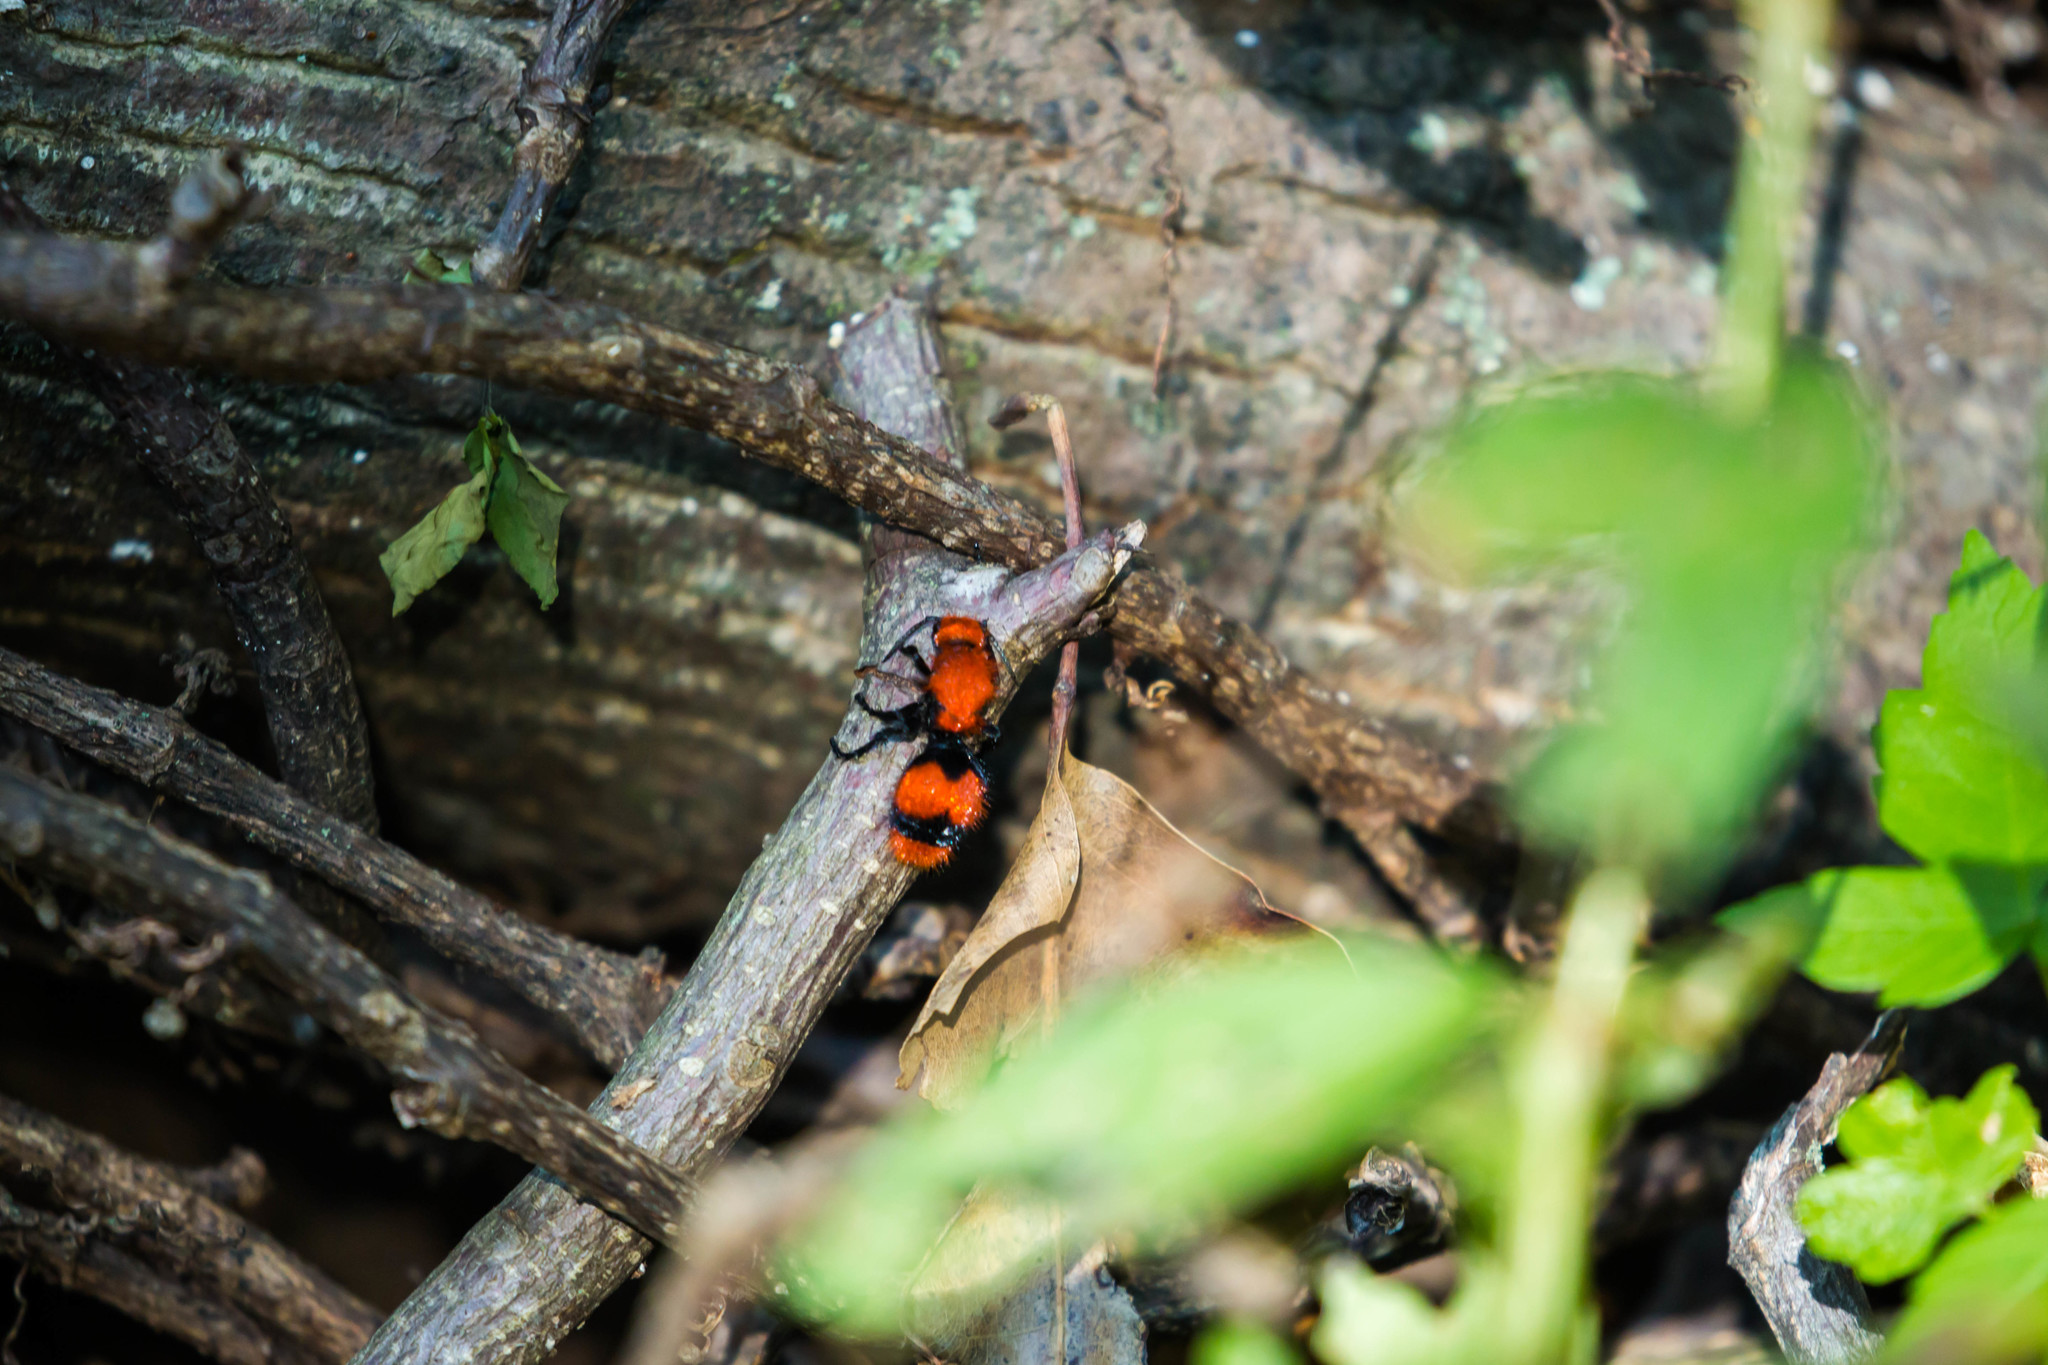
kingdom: Animalia
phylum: Arthropoda
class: Insecta
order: Hymenoptera
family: Mutillidae
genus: Dasymutilla
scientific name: Dasymutilla occidentalis
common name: Common eastern velvet ant
